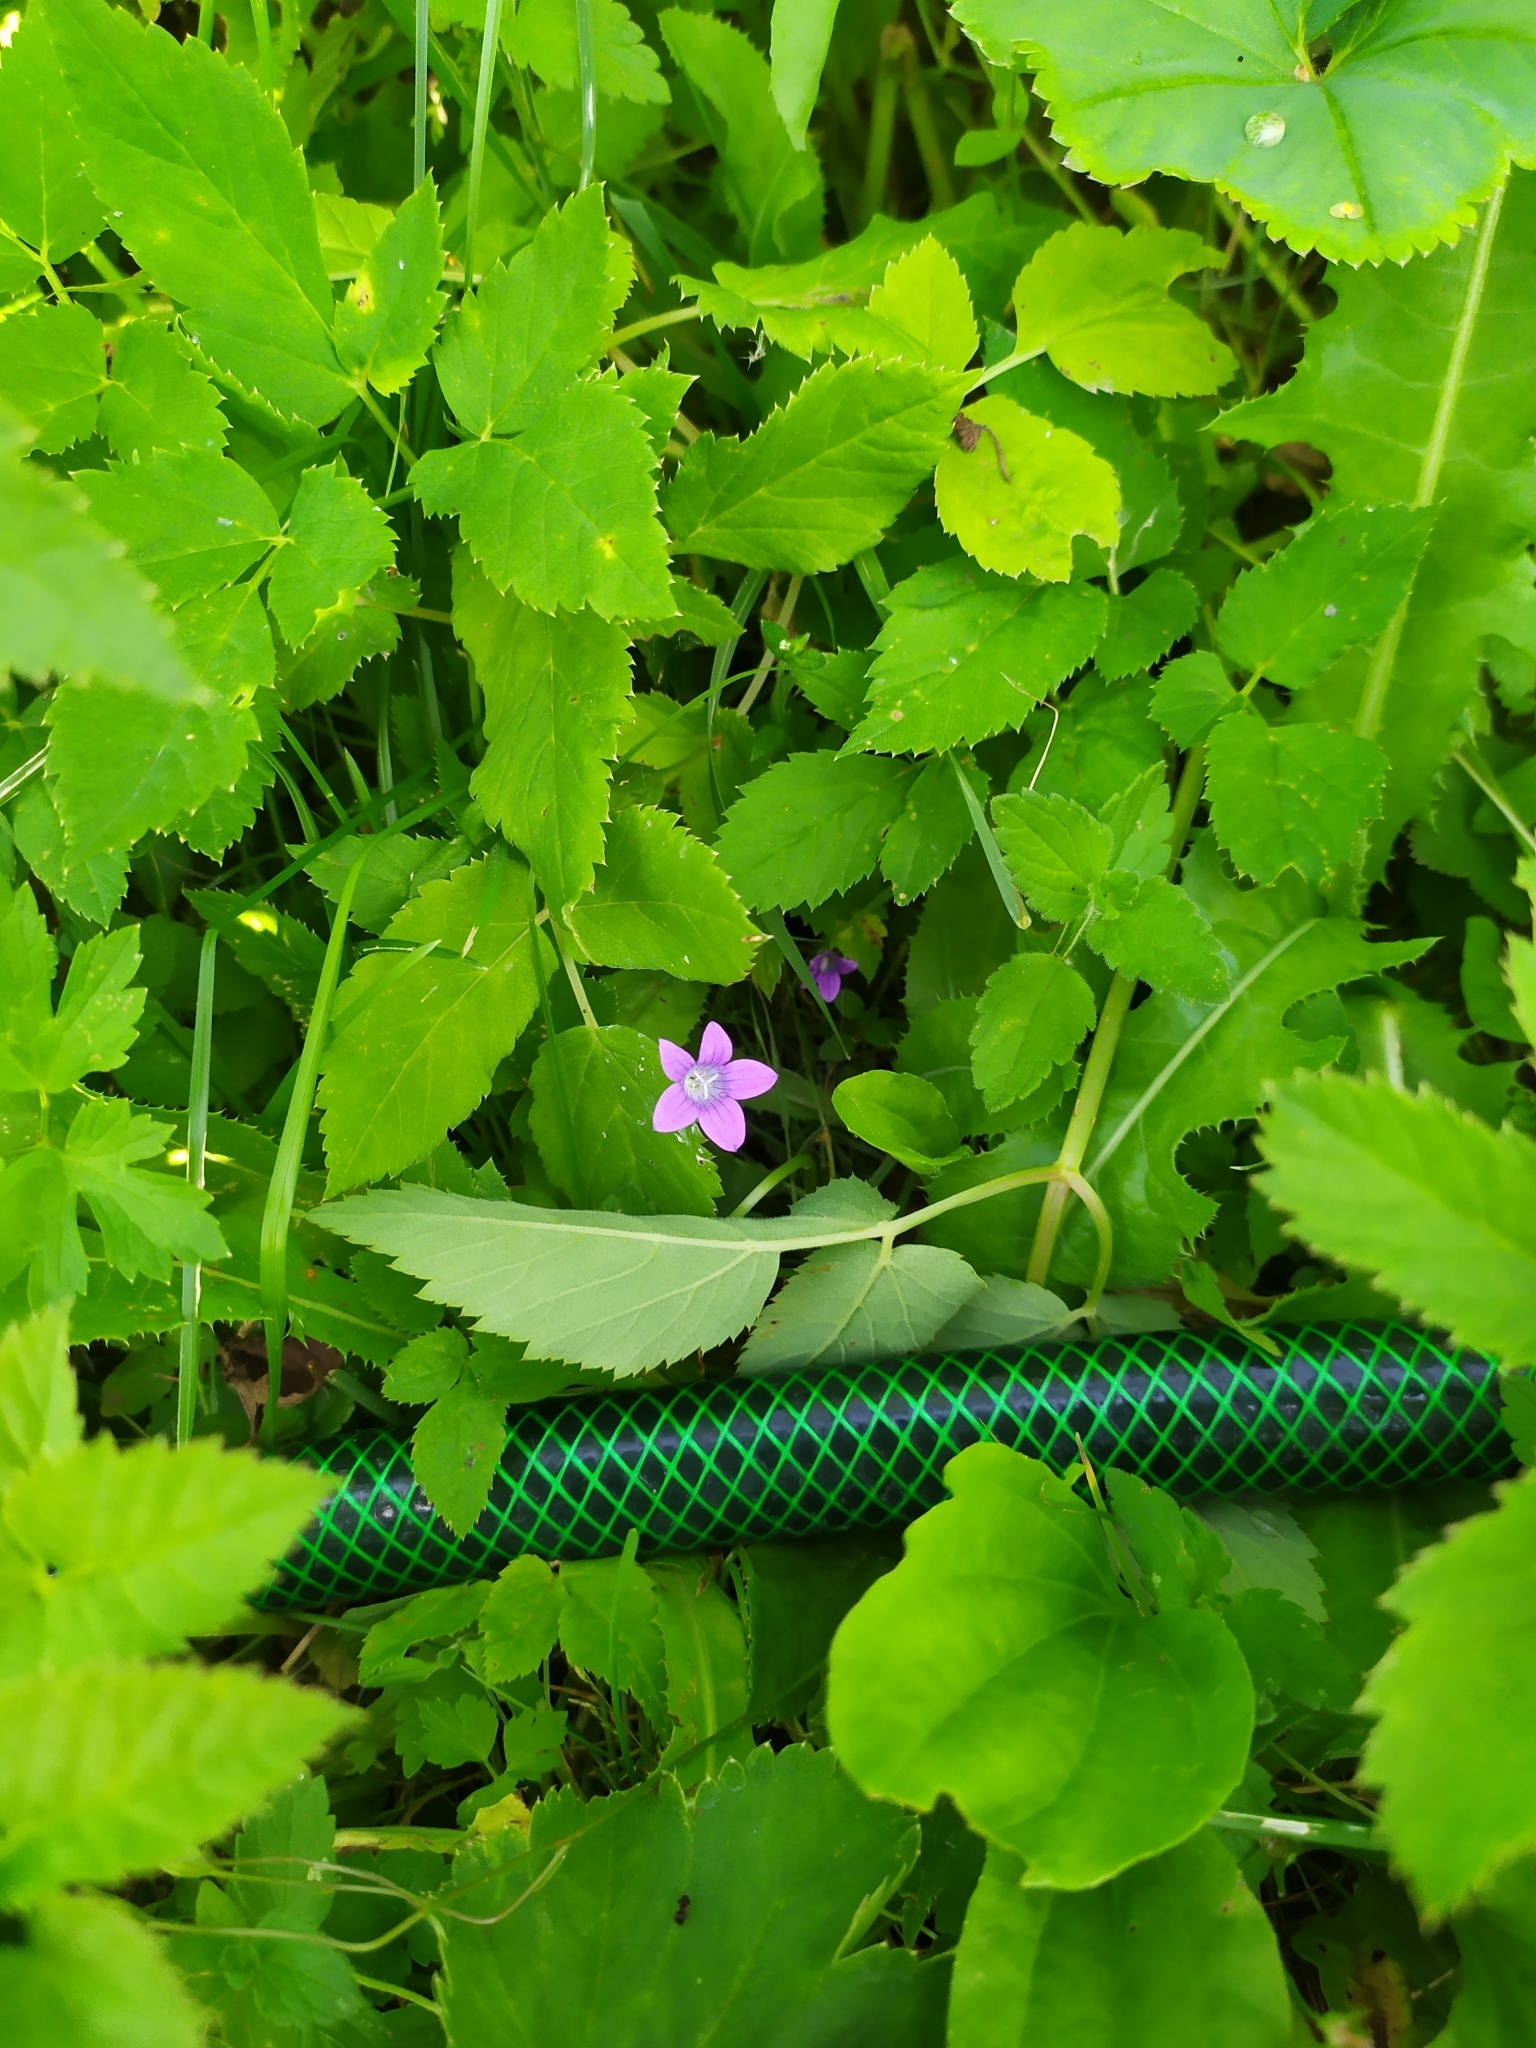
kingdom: Plantae
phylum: Tracheophyta
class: Magnoliopsida
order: Asterales
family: Campanulaceae
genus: Campanula
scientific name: Campanula patula
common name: Spreading bellflower
